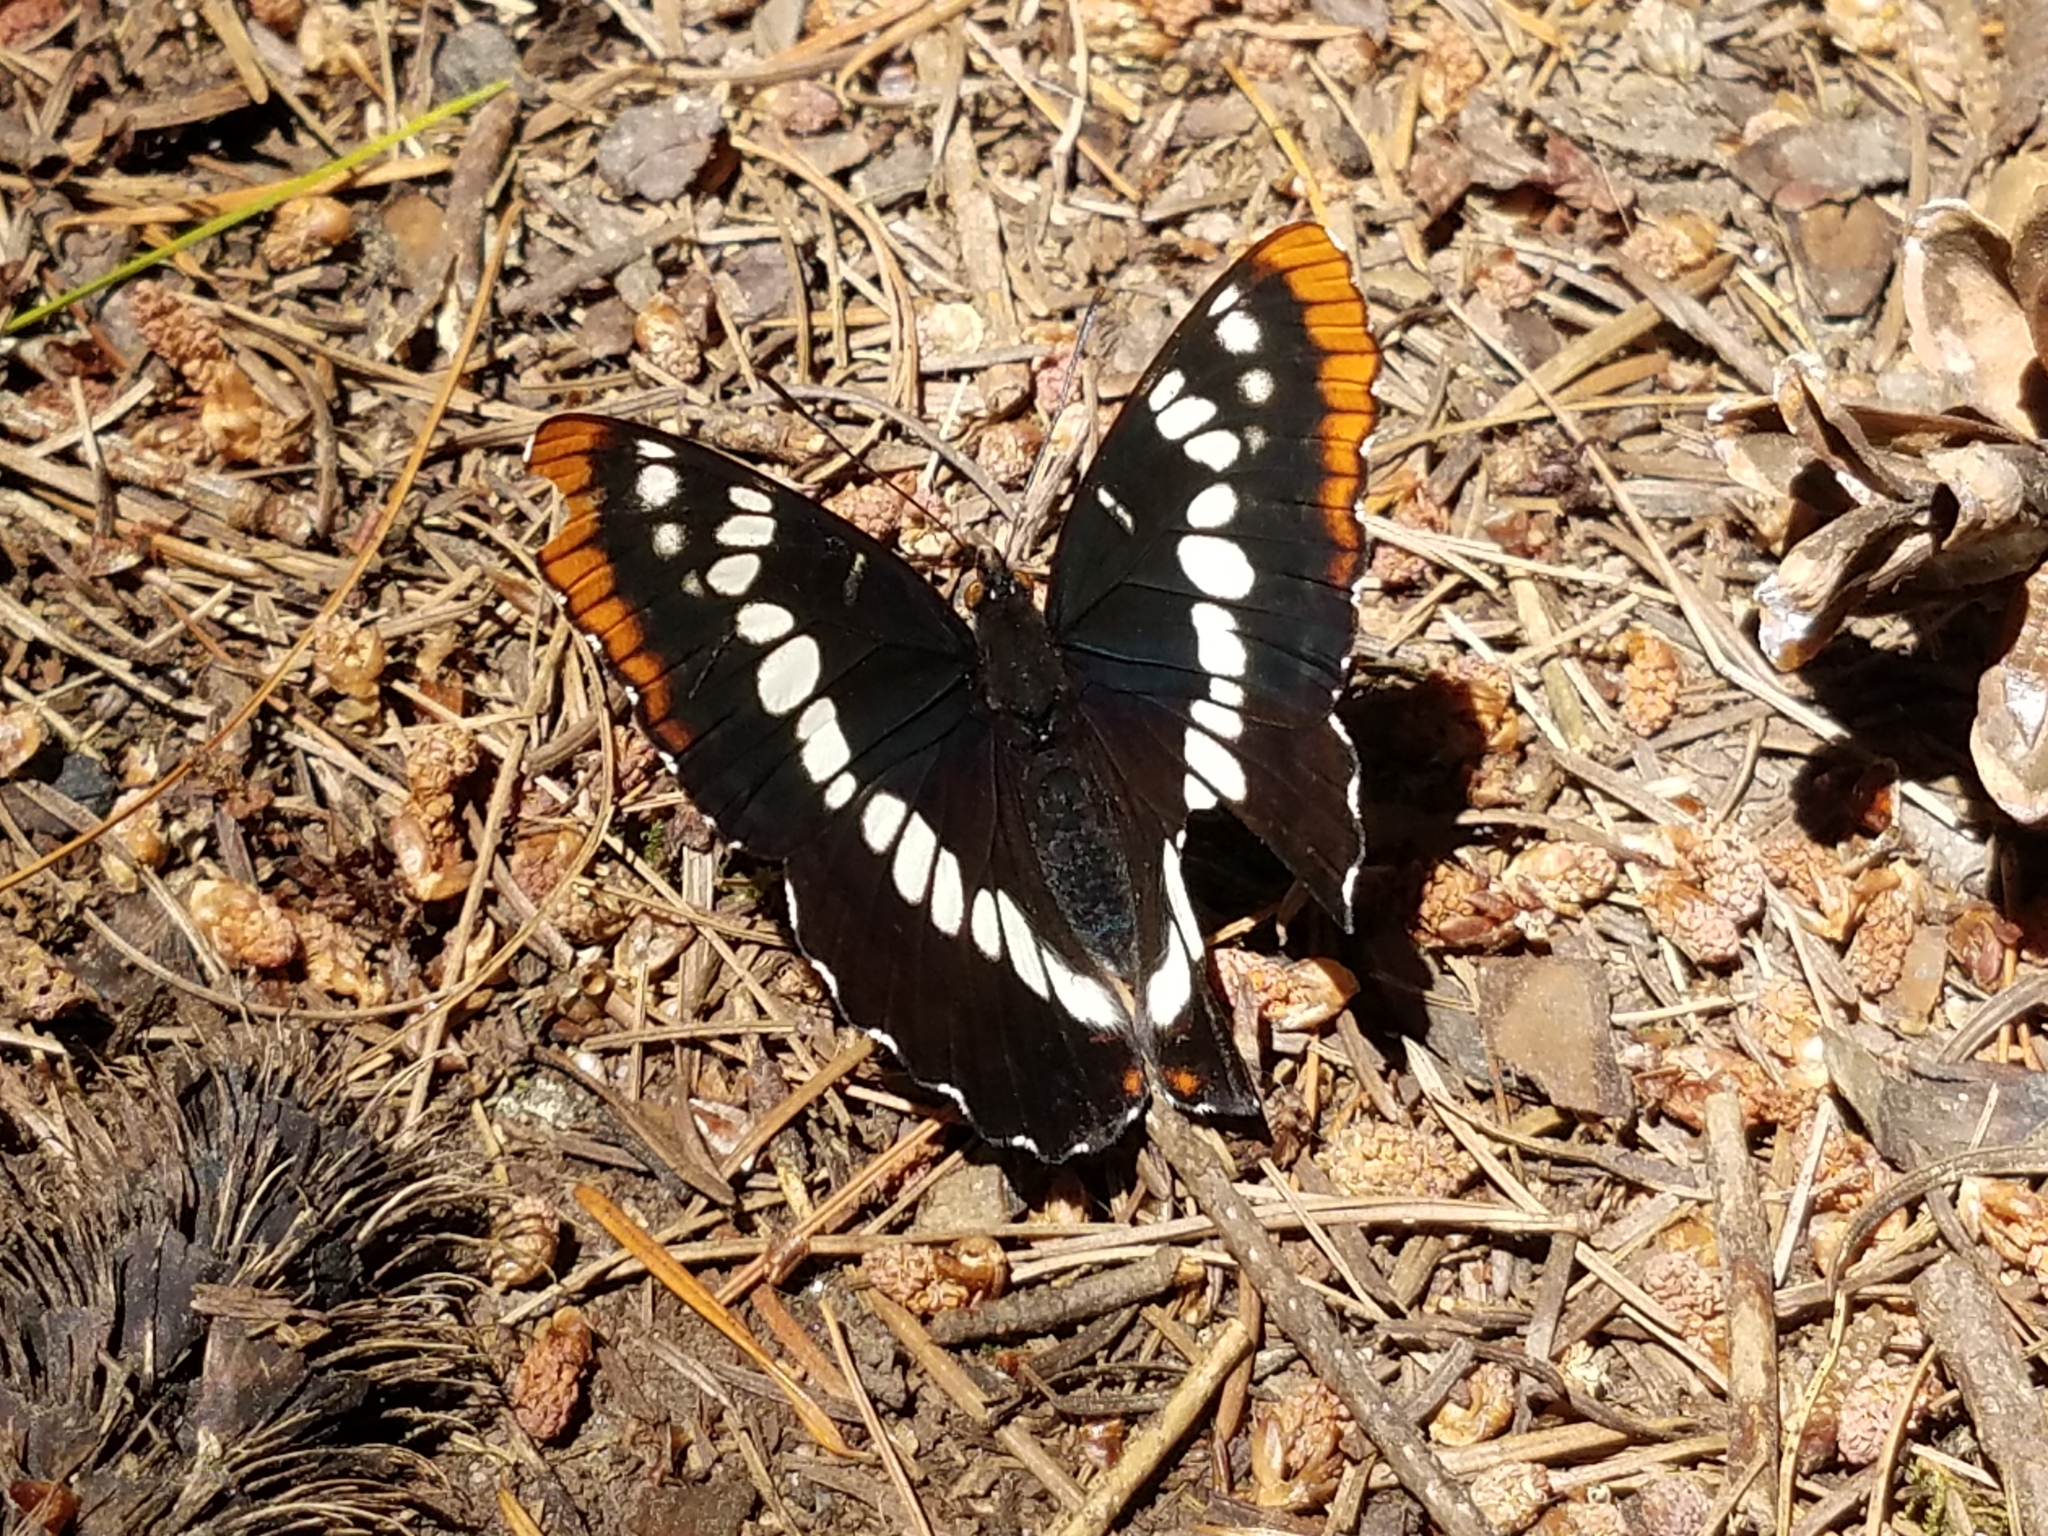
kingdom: Animalia
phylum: Arthropoda
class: Insecta
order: Lepidoptera
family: Nymphalidae
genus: Limenitis
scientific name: Limenitis lorquini
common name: Lorquin's admiral
